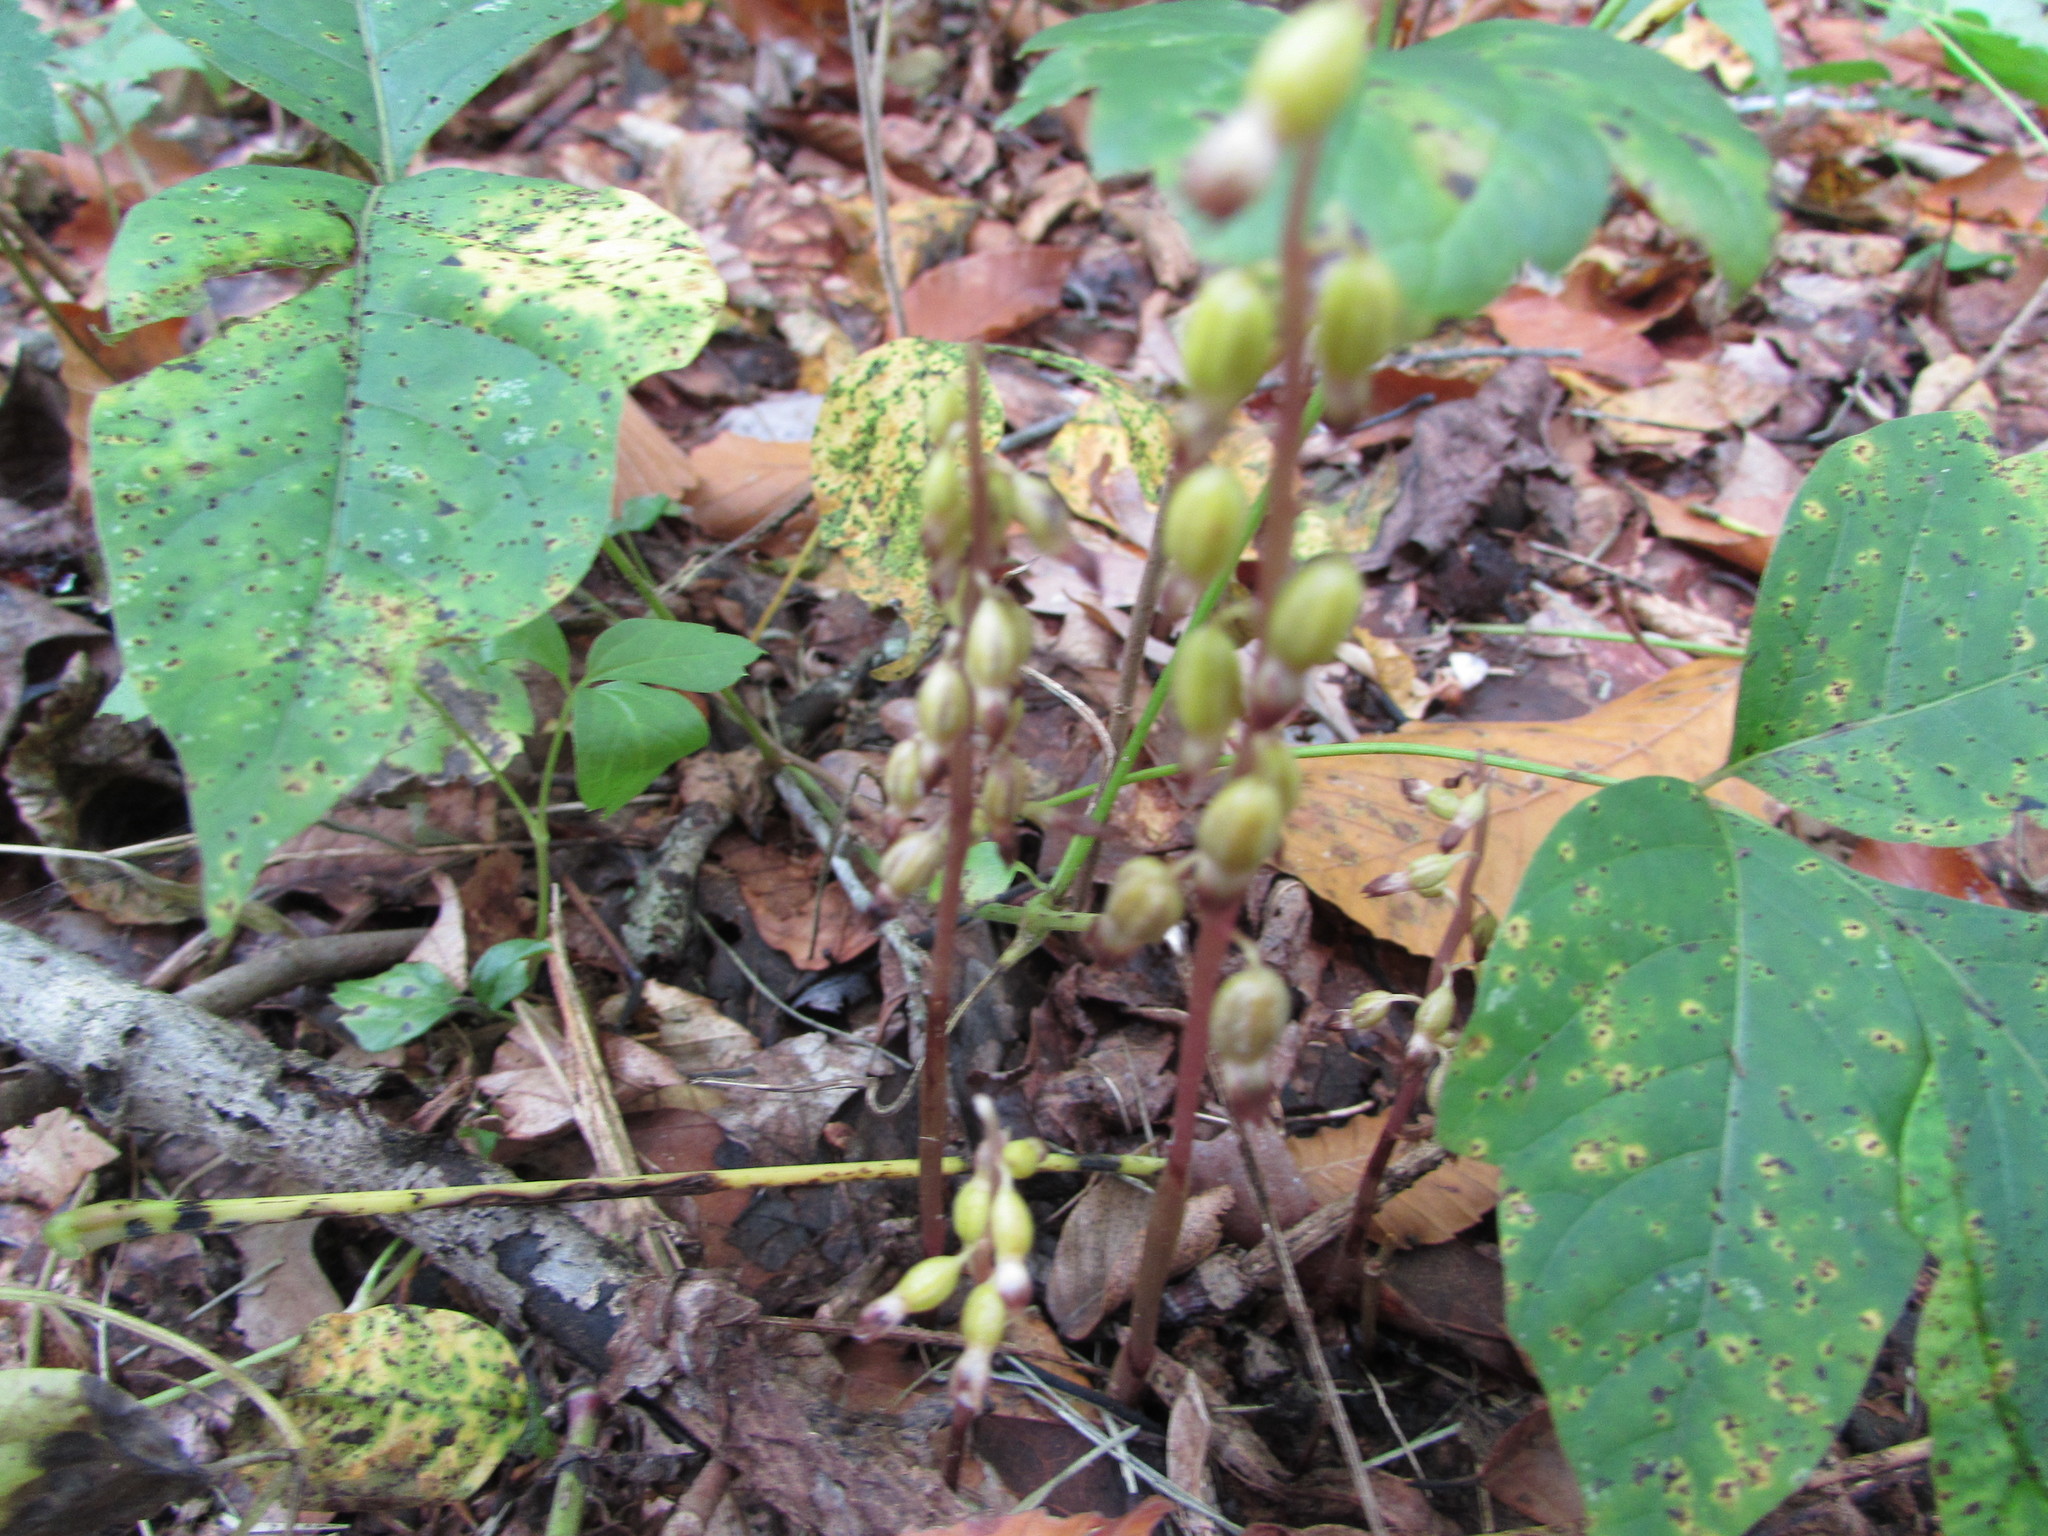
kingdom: Plantae
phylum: Tracheophyta
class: Magnoliopsida
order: Sapindales
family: Anacardiaceae
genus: Toxicodendron
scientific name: Toxicodendron radicans
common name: Poison ivy
